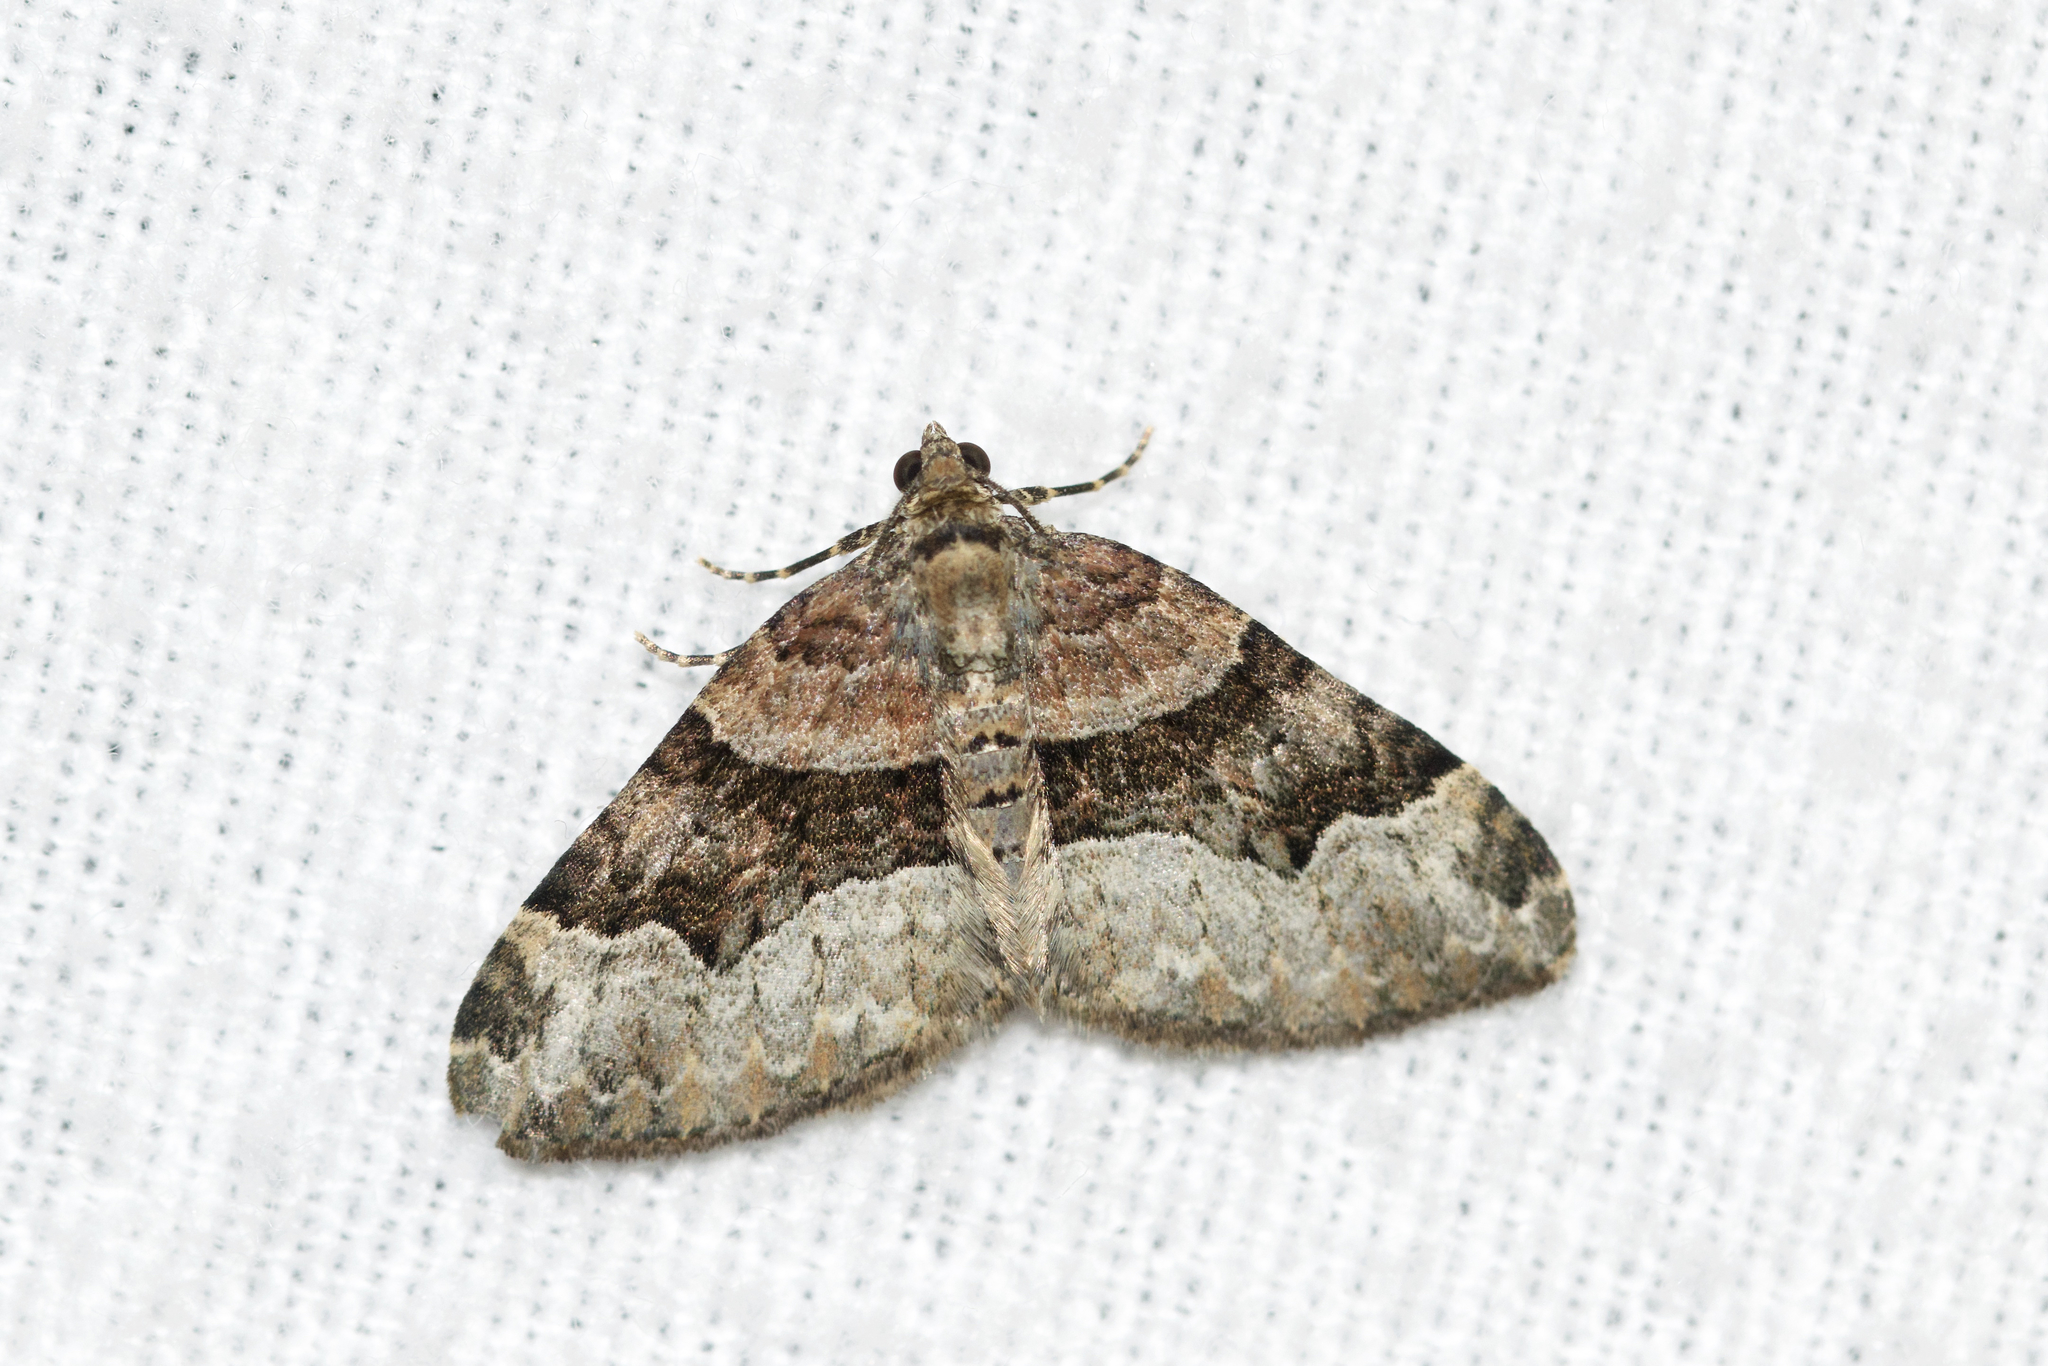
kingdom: Animalia
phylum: Arthropoda
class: Insecta
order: Lepidoptera
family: Geometridae
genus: Xanthorhoe
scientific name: Xanthorhoe lacustrata
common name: Toothed brown carpet
